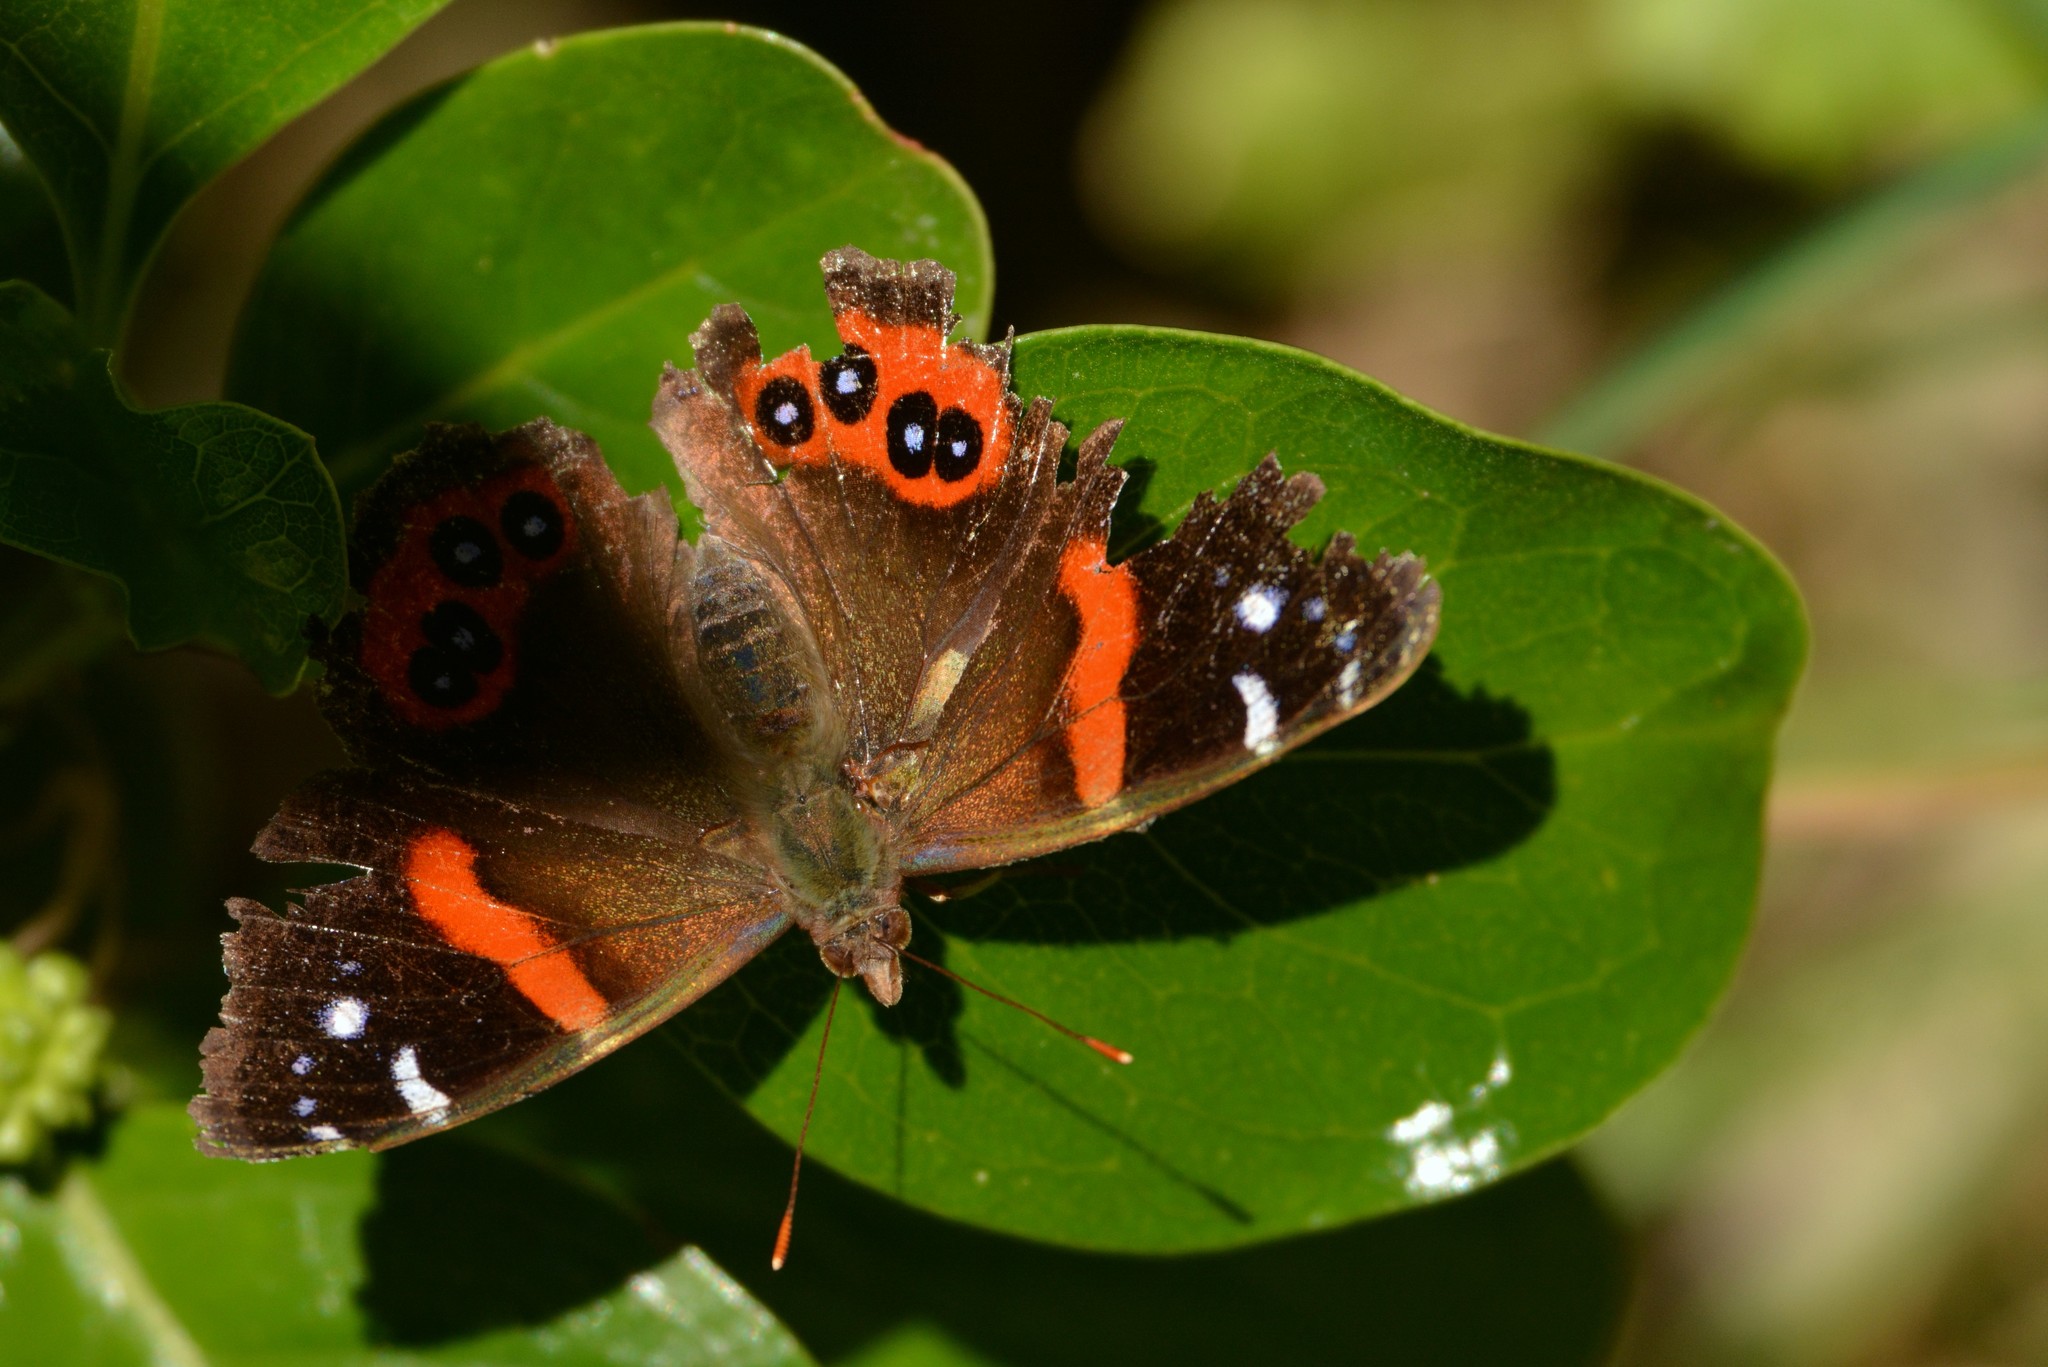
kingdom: Animalia
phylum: Arthropoda
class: Insecta
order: Lepidoptera
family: Nymphalidae
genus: Vanessa
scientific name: Vanessa gonerilla
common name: New zealand red admiral
